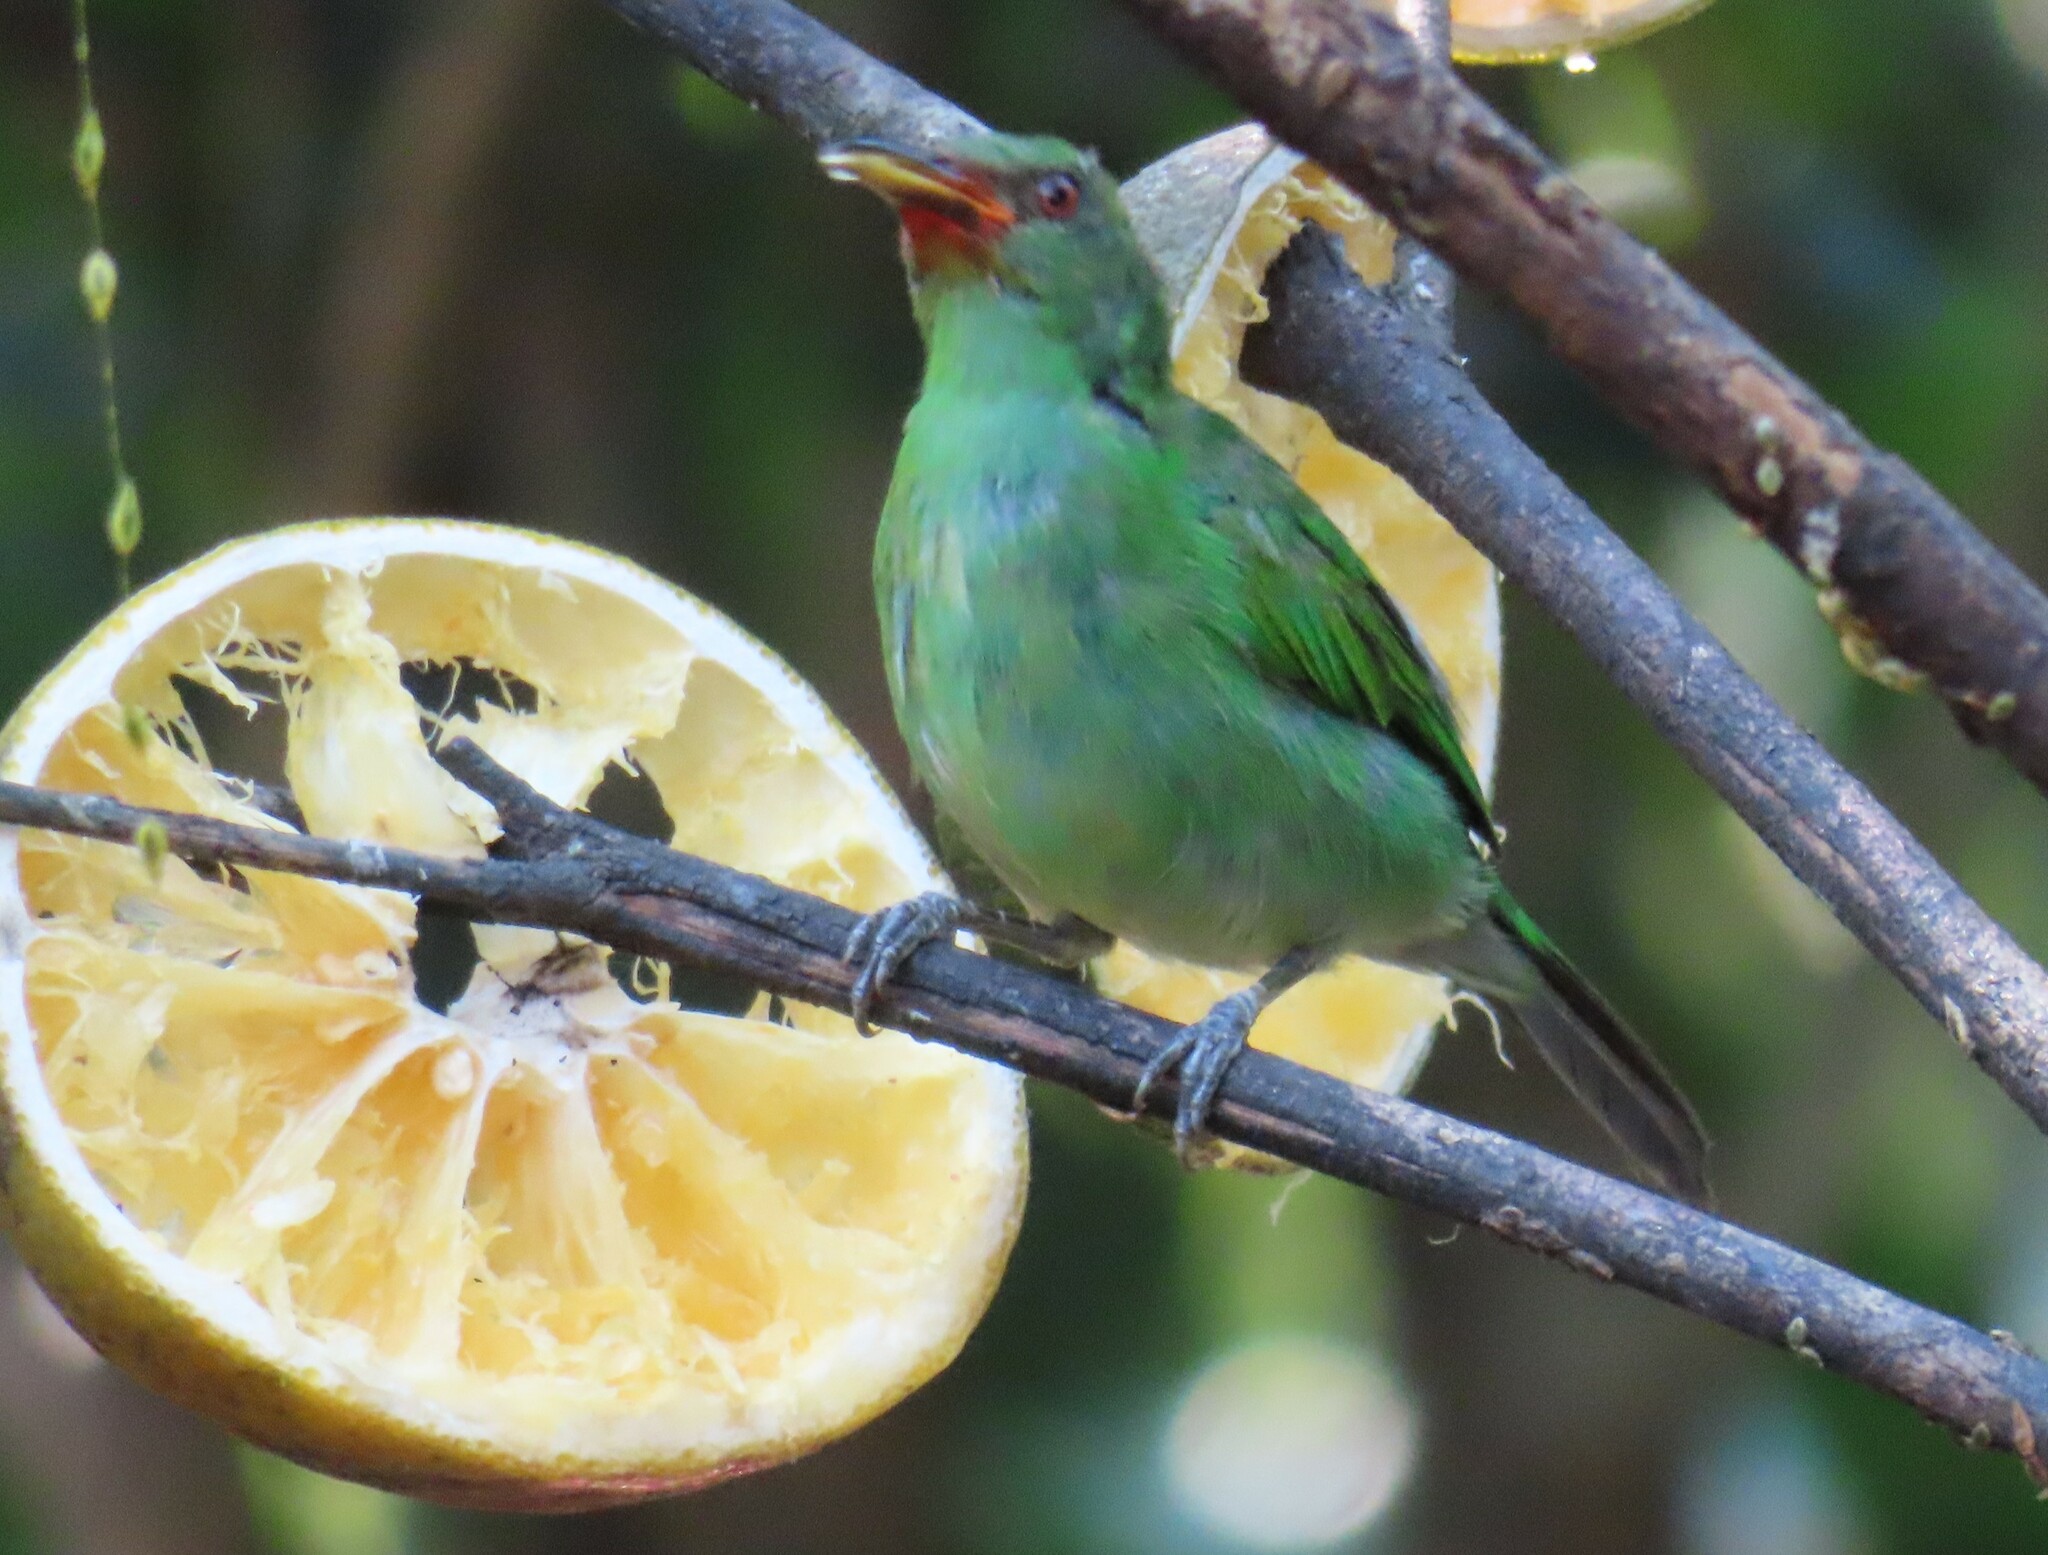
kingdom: Animalia
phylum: Chordata
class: Aves
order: Passeriformes
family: Thraupidae
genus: Chlorophanes
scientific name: Chlorophanes spiza
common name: Green honeycreeper
